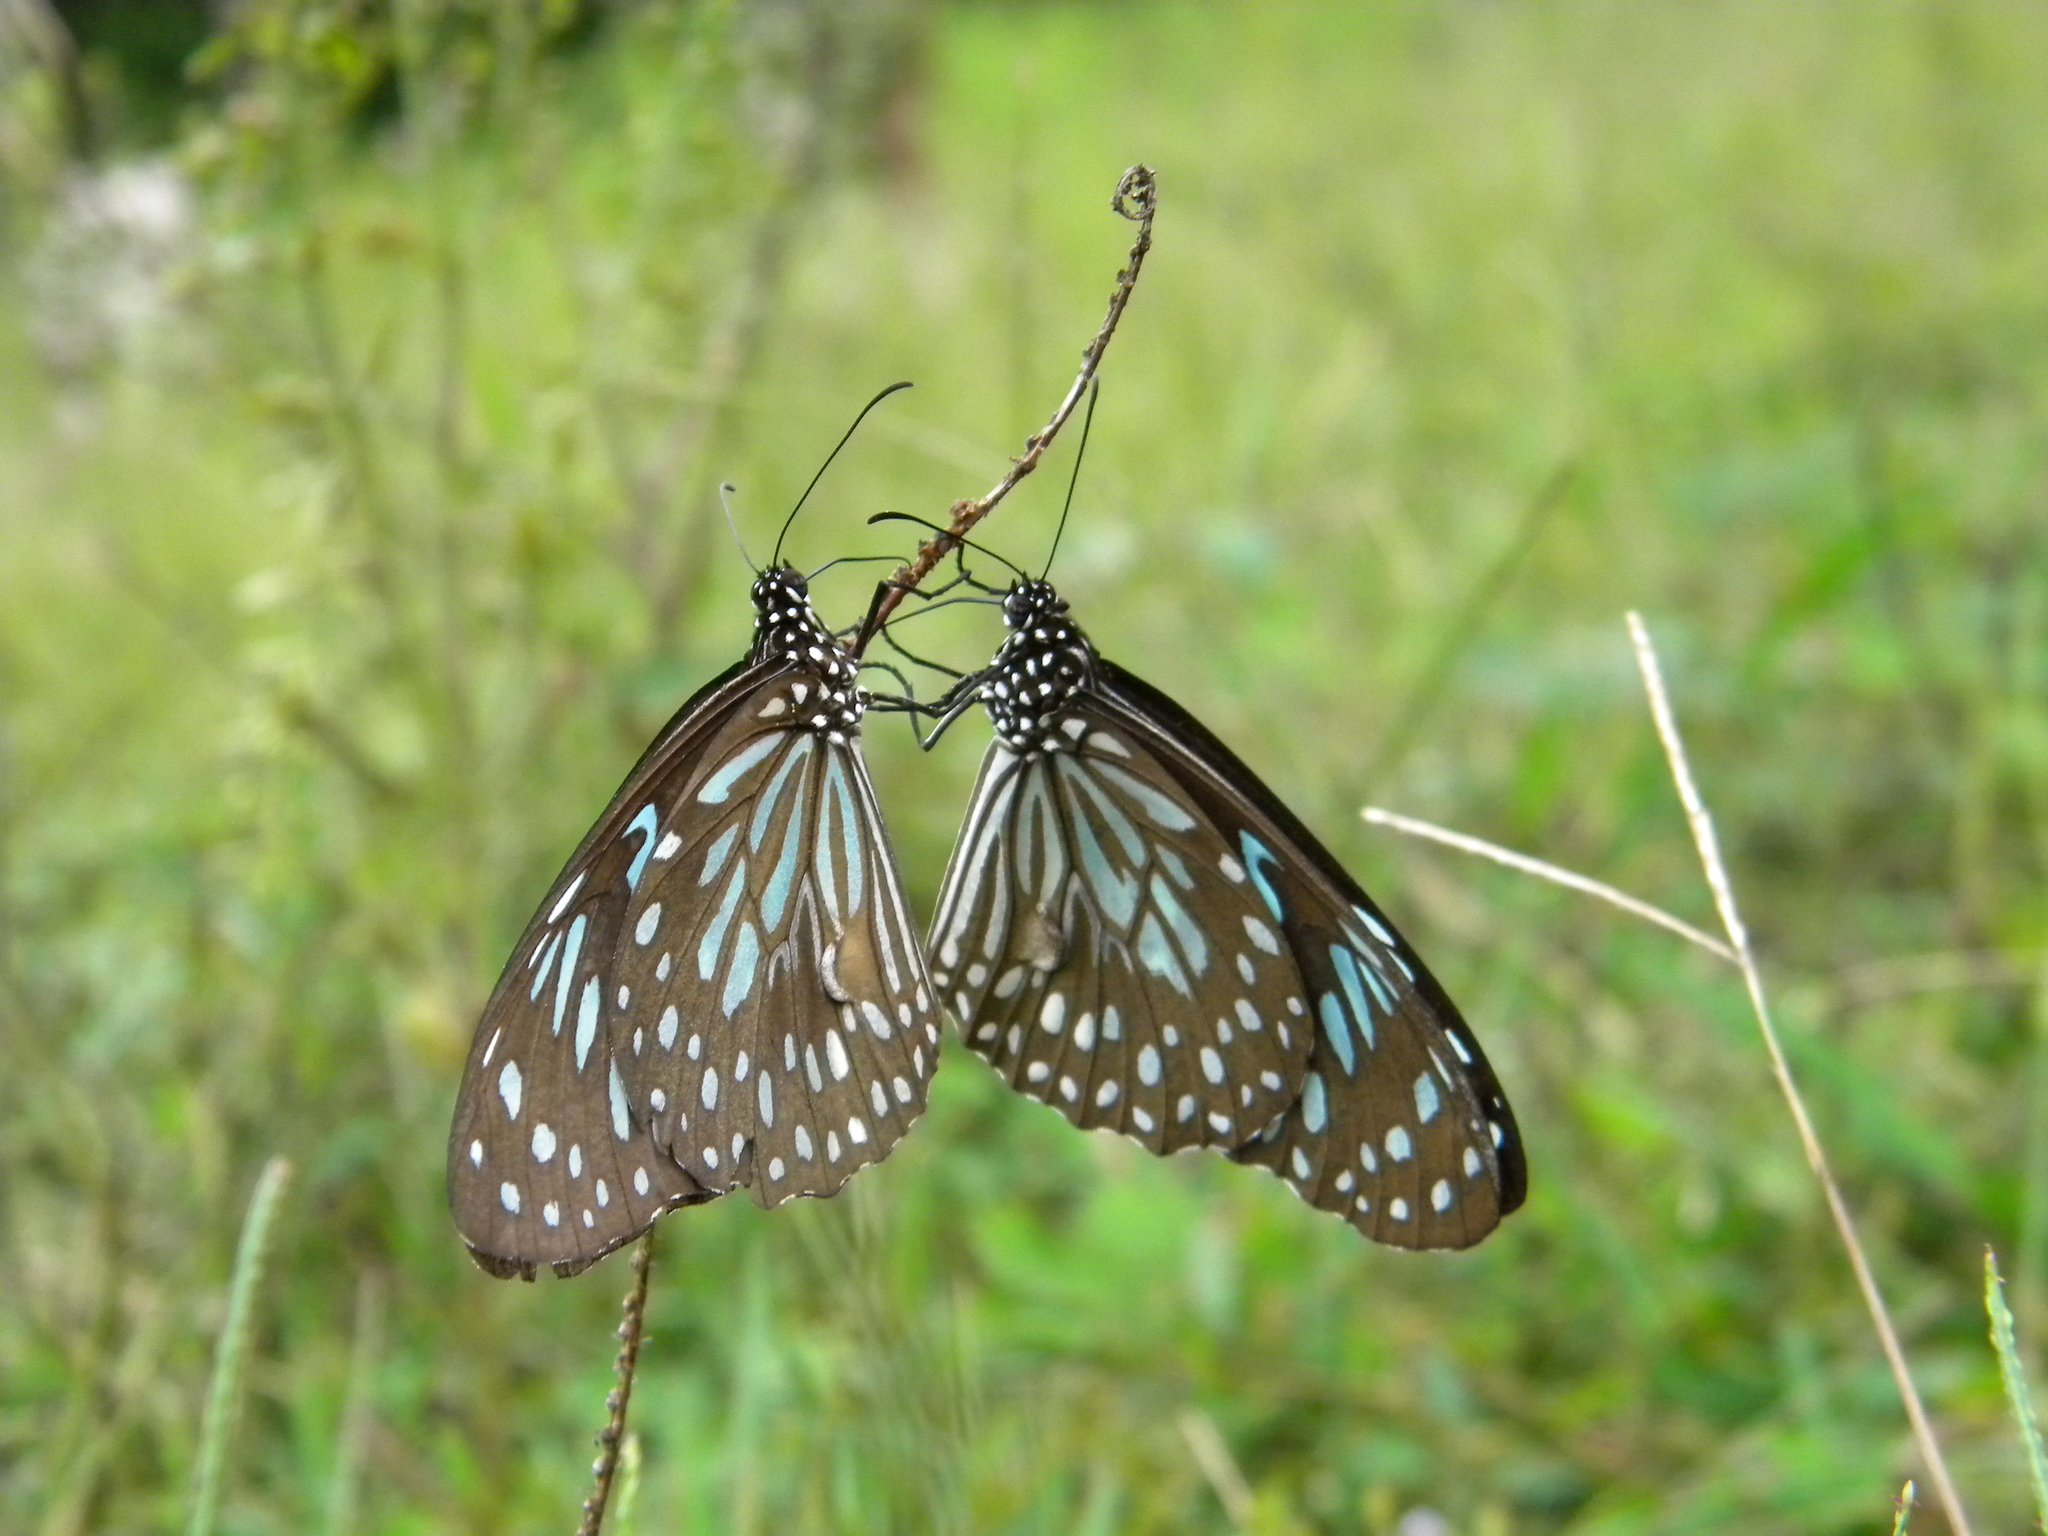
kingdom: Animalia
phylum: Arthropoda
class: Insecta
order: Lepidoptera
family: Nymphalidae
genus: Tirumala
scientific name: Tirumala septentrionis
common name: Dark blue tiger butterfly
